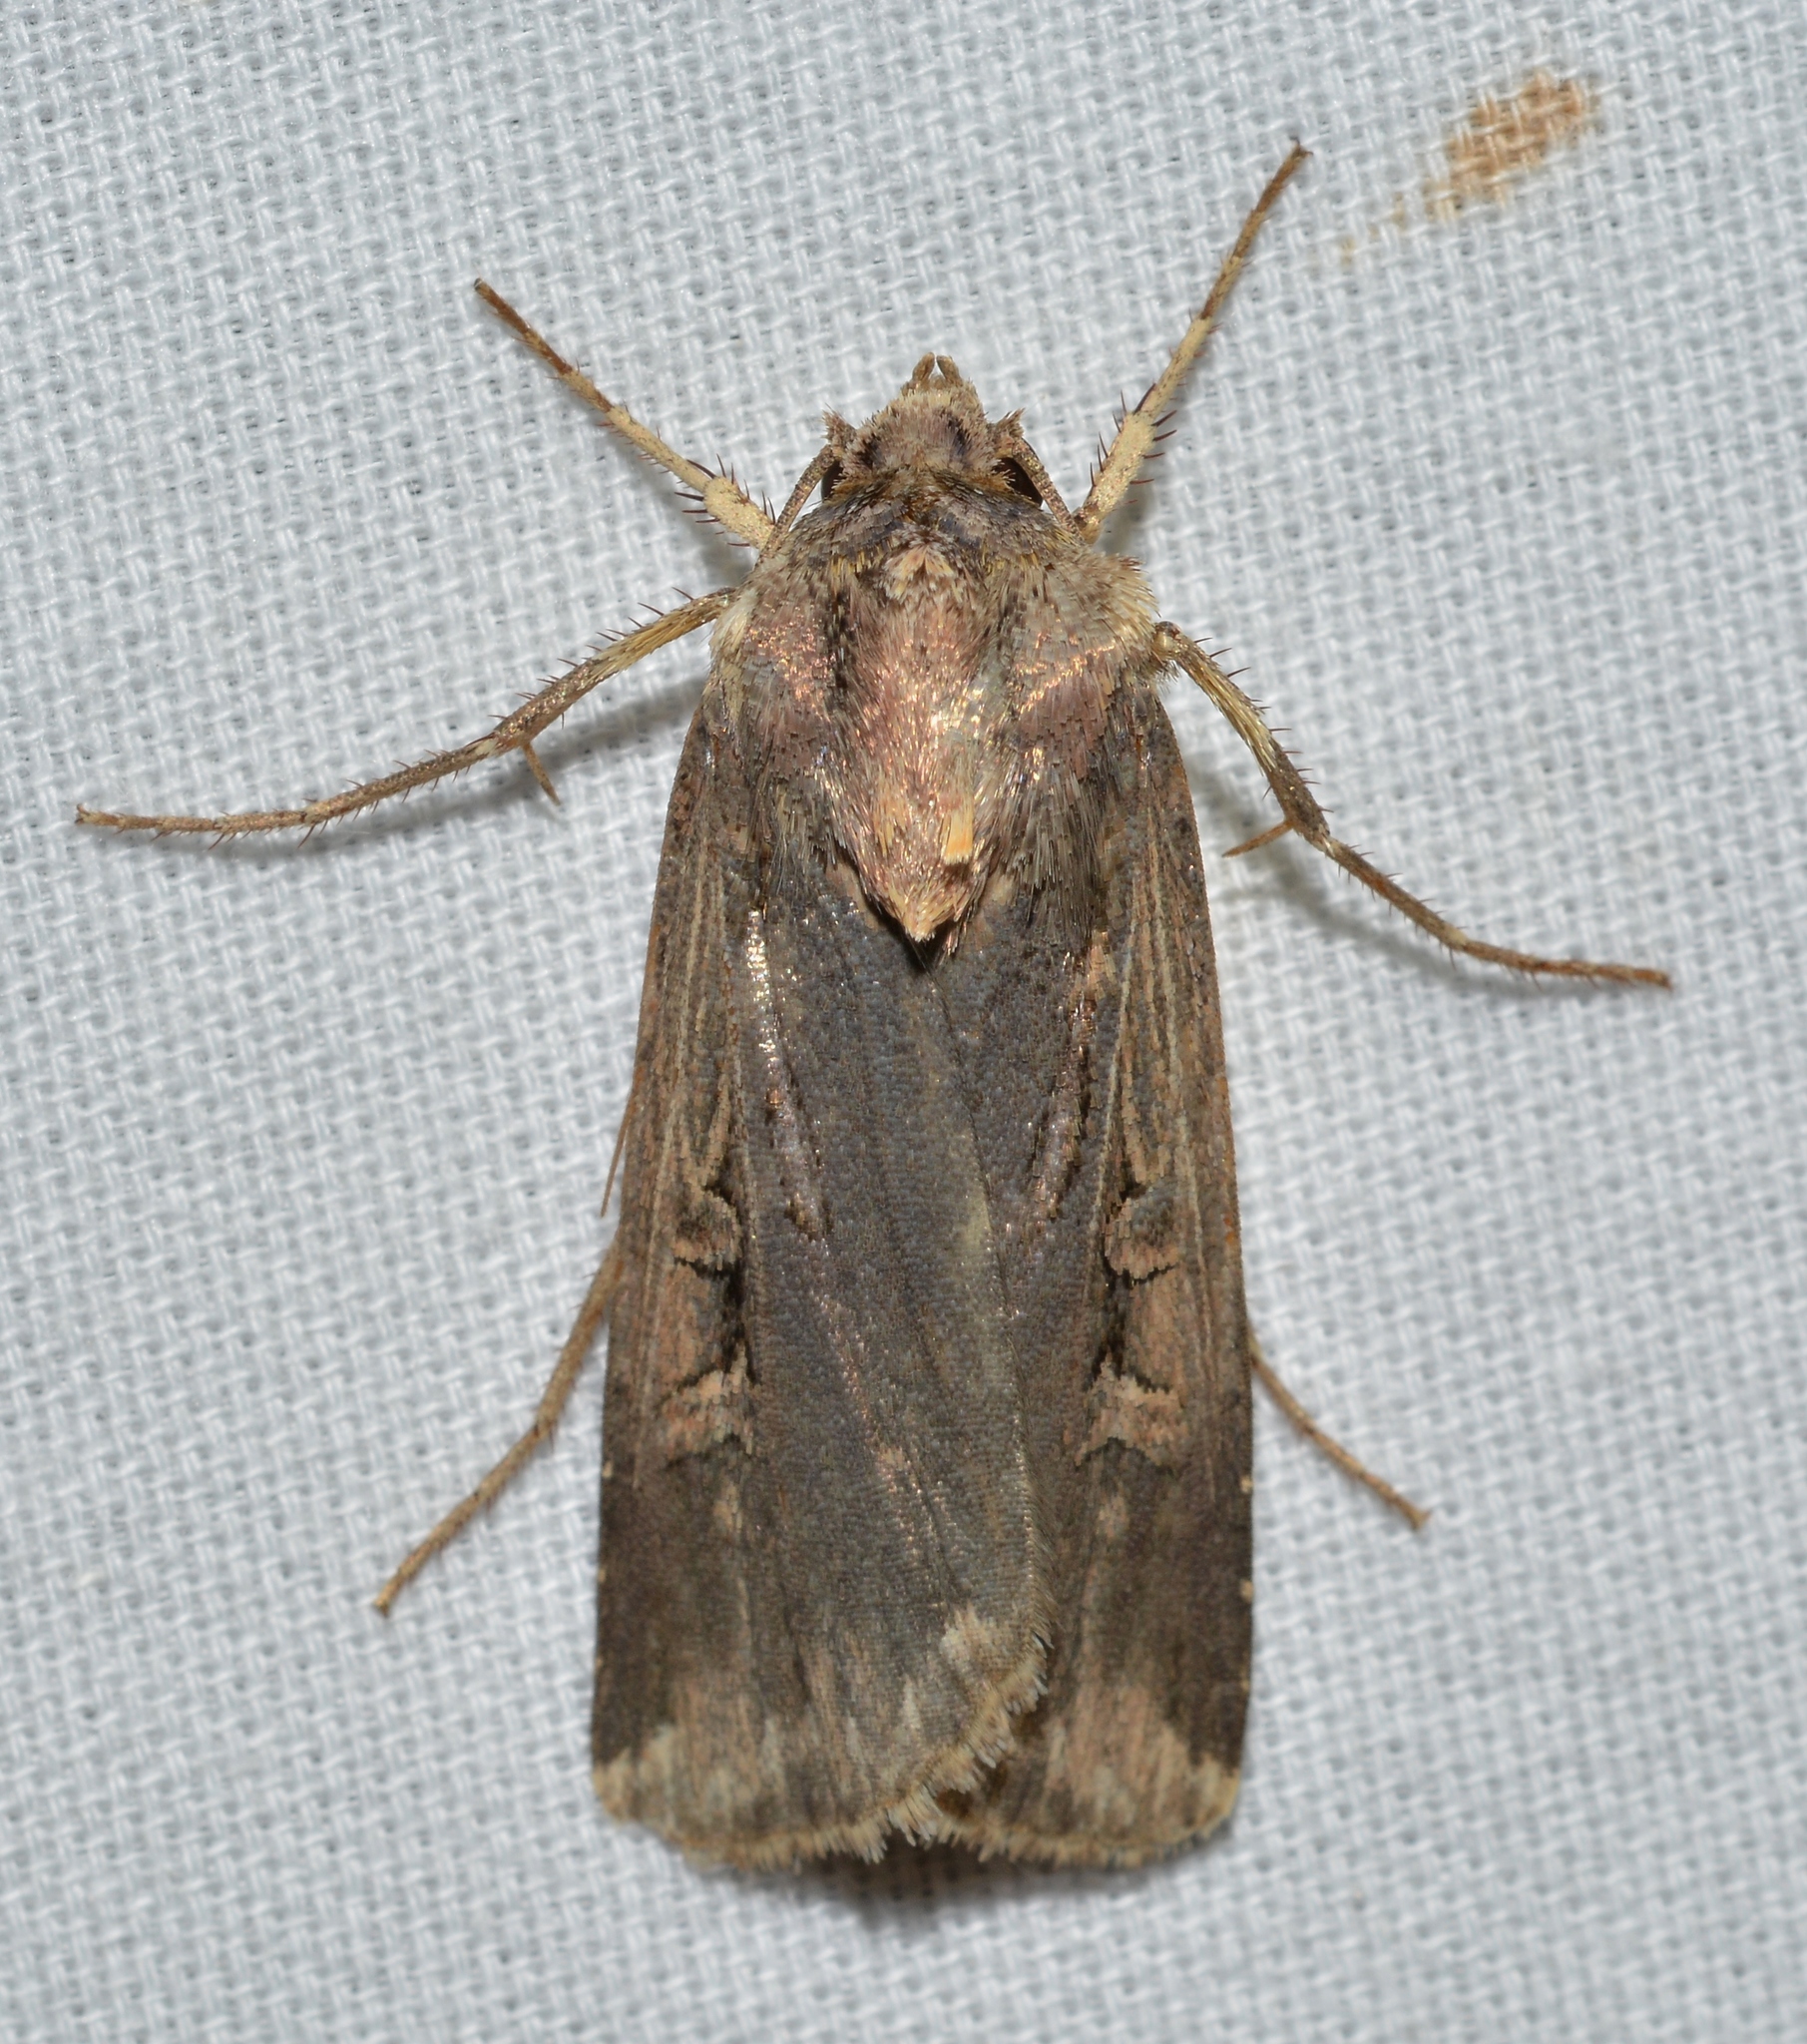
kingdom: Animalia
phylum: Arthropoda
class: Insecta
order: Lepidoptera
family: Noctuidae
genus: Feltia
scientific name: Feltia subterranea
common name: Granulate cutworm
